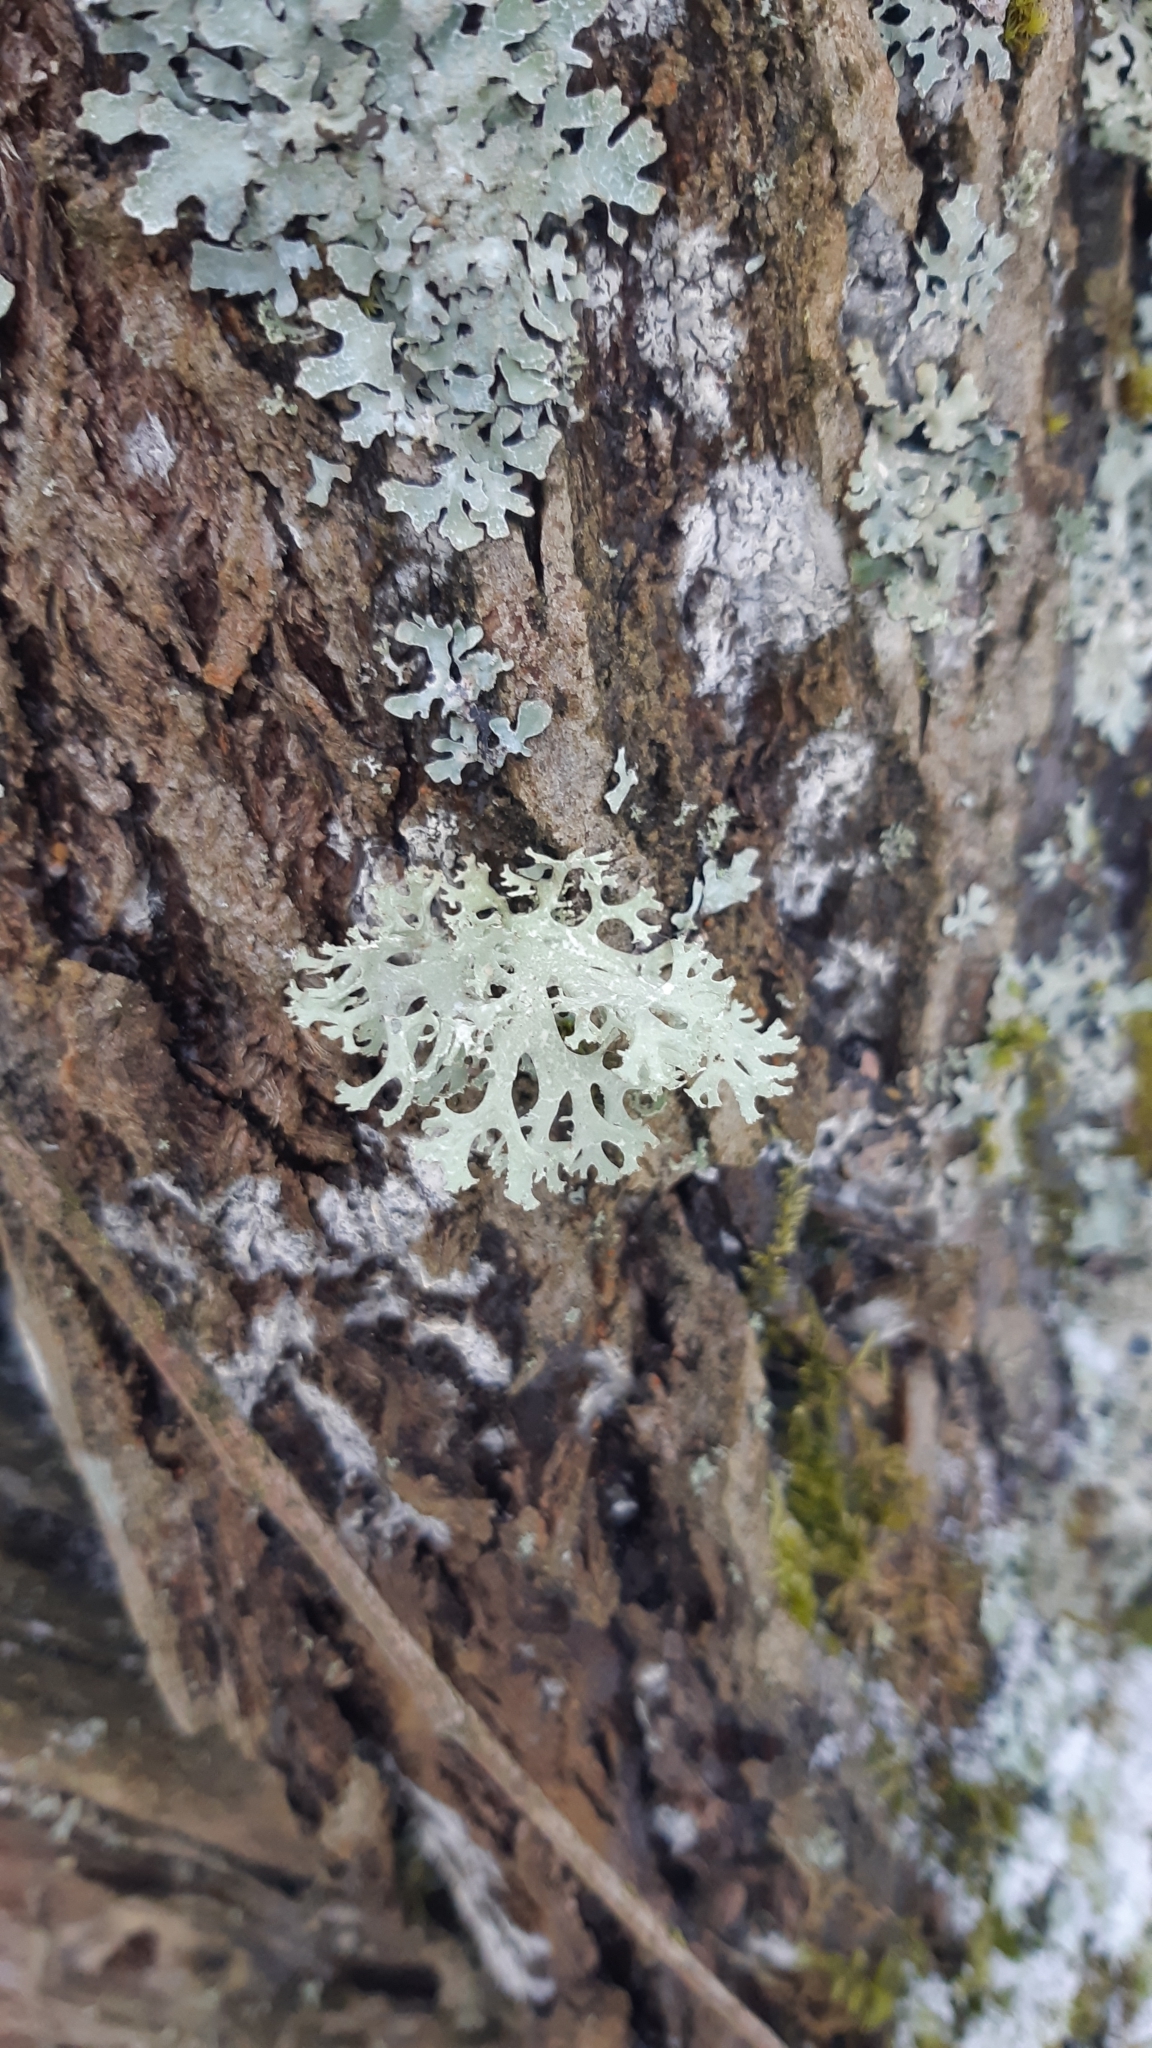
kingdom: Fungi
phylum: Ascomycota
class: Lecanoromycetes
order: Lecanorales
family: Parmeliaceae
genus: Evernia
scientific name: Evernia prunastri
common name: Oak moss
